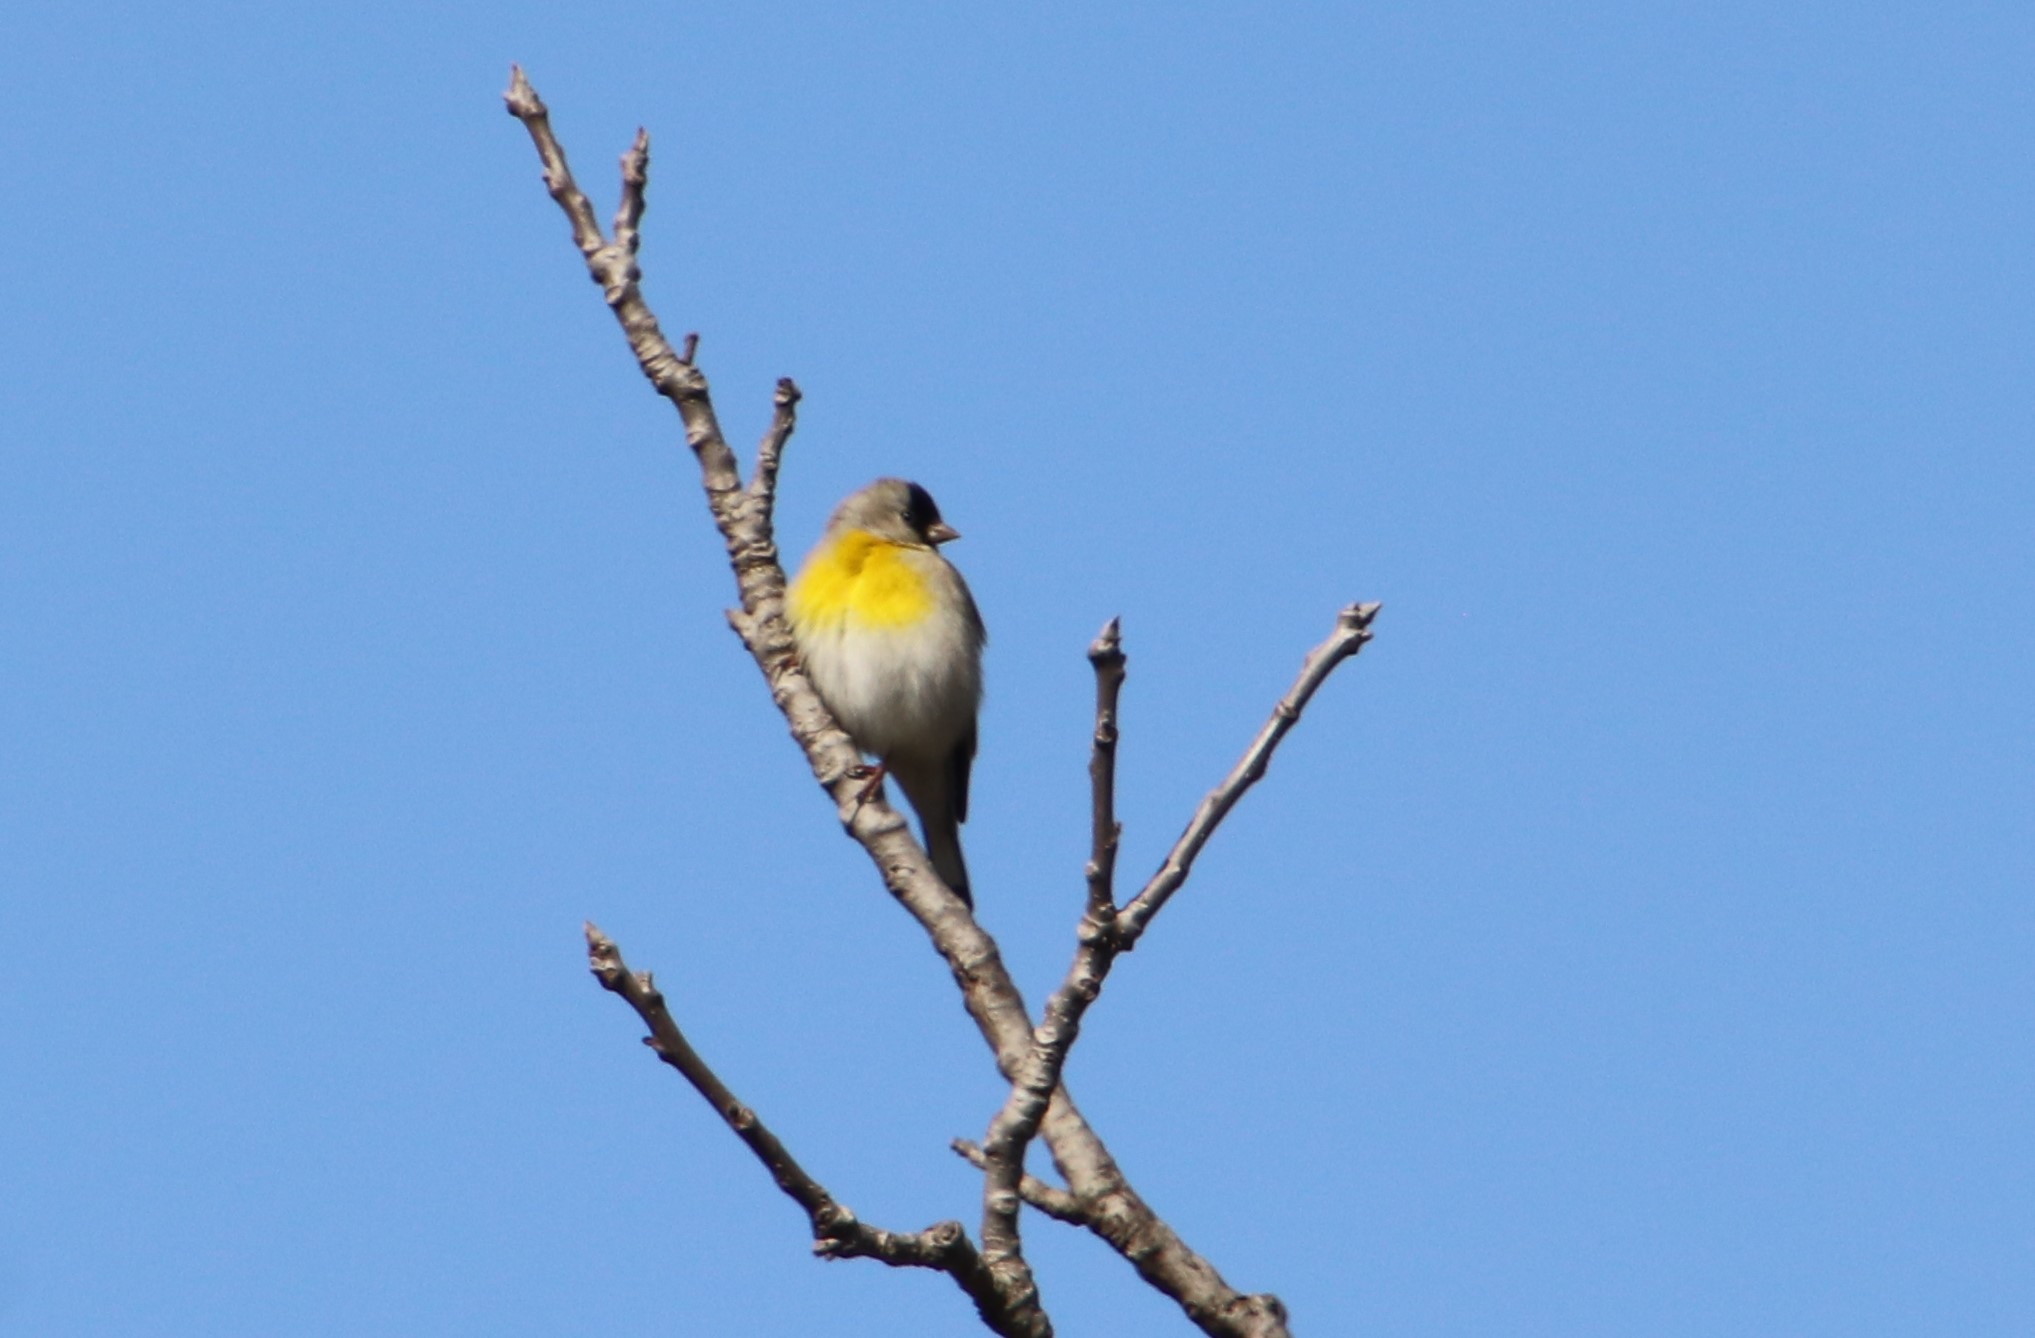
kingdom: Animalia
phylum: Chordata
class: Aves
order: Passeriformes
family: Fringillidae
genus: Spinus
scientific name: Spinus lawrencei
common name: Lawrence's goldfinch
